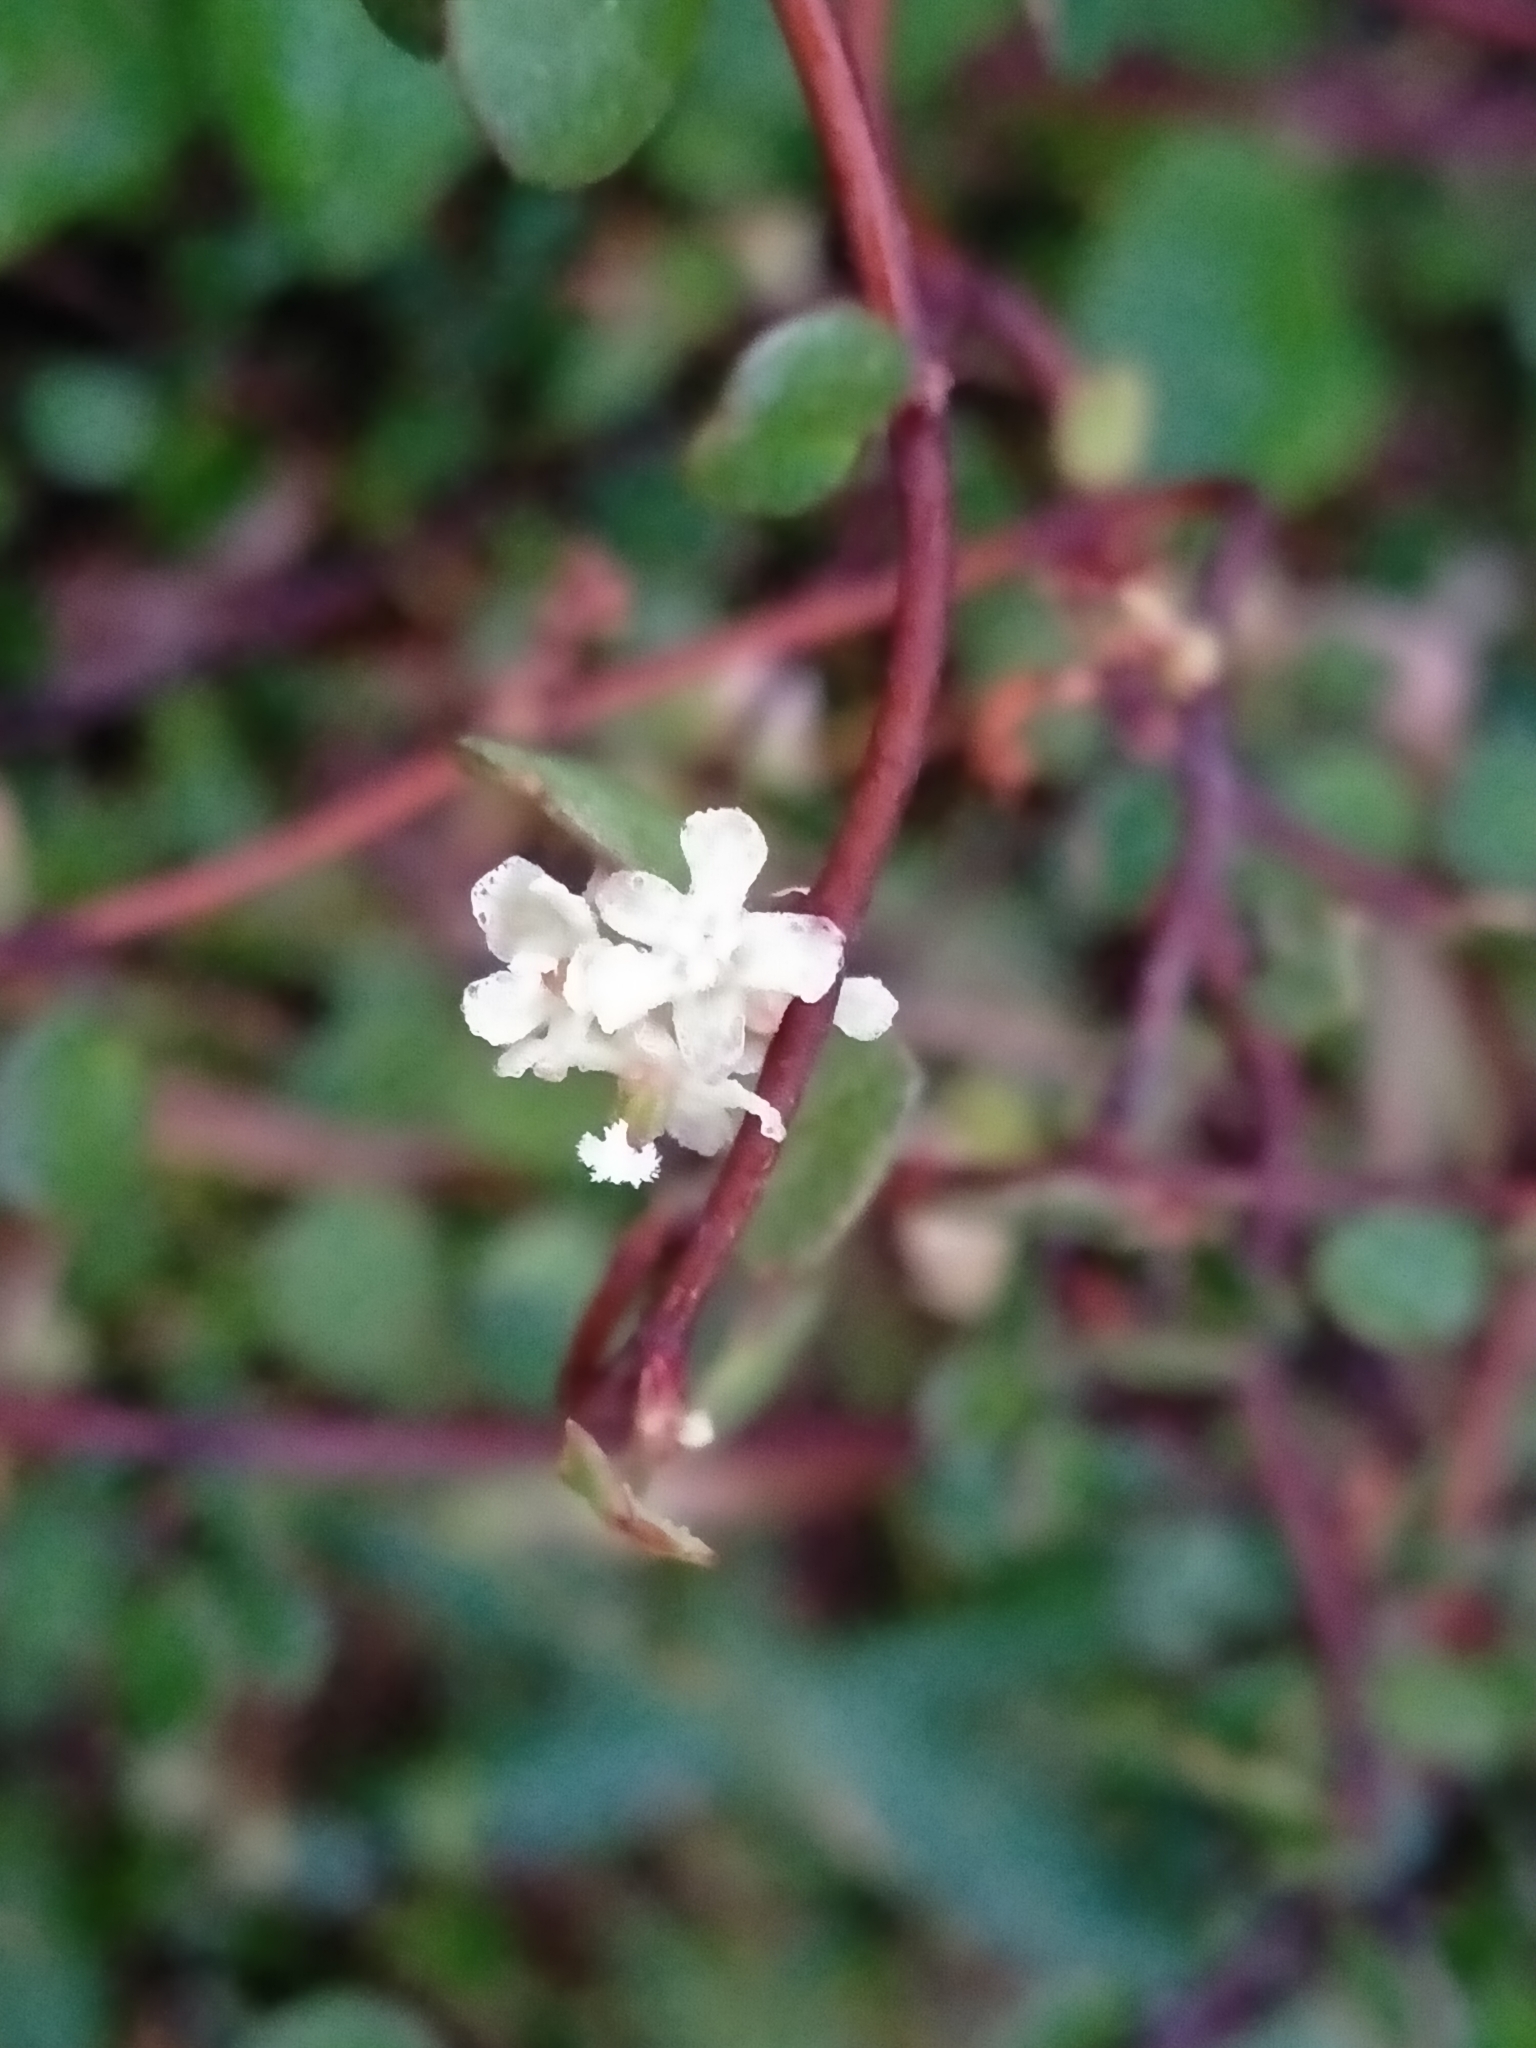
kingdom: Plantae
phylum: Tracheophyta
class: Magnoliopsida
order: Caryophyllales
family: Polygonaceae
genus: Muehlenbeckia
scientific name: Muehlenbeckia complexa
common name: Wireplant
